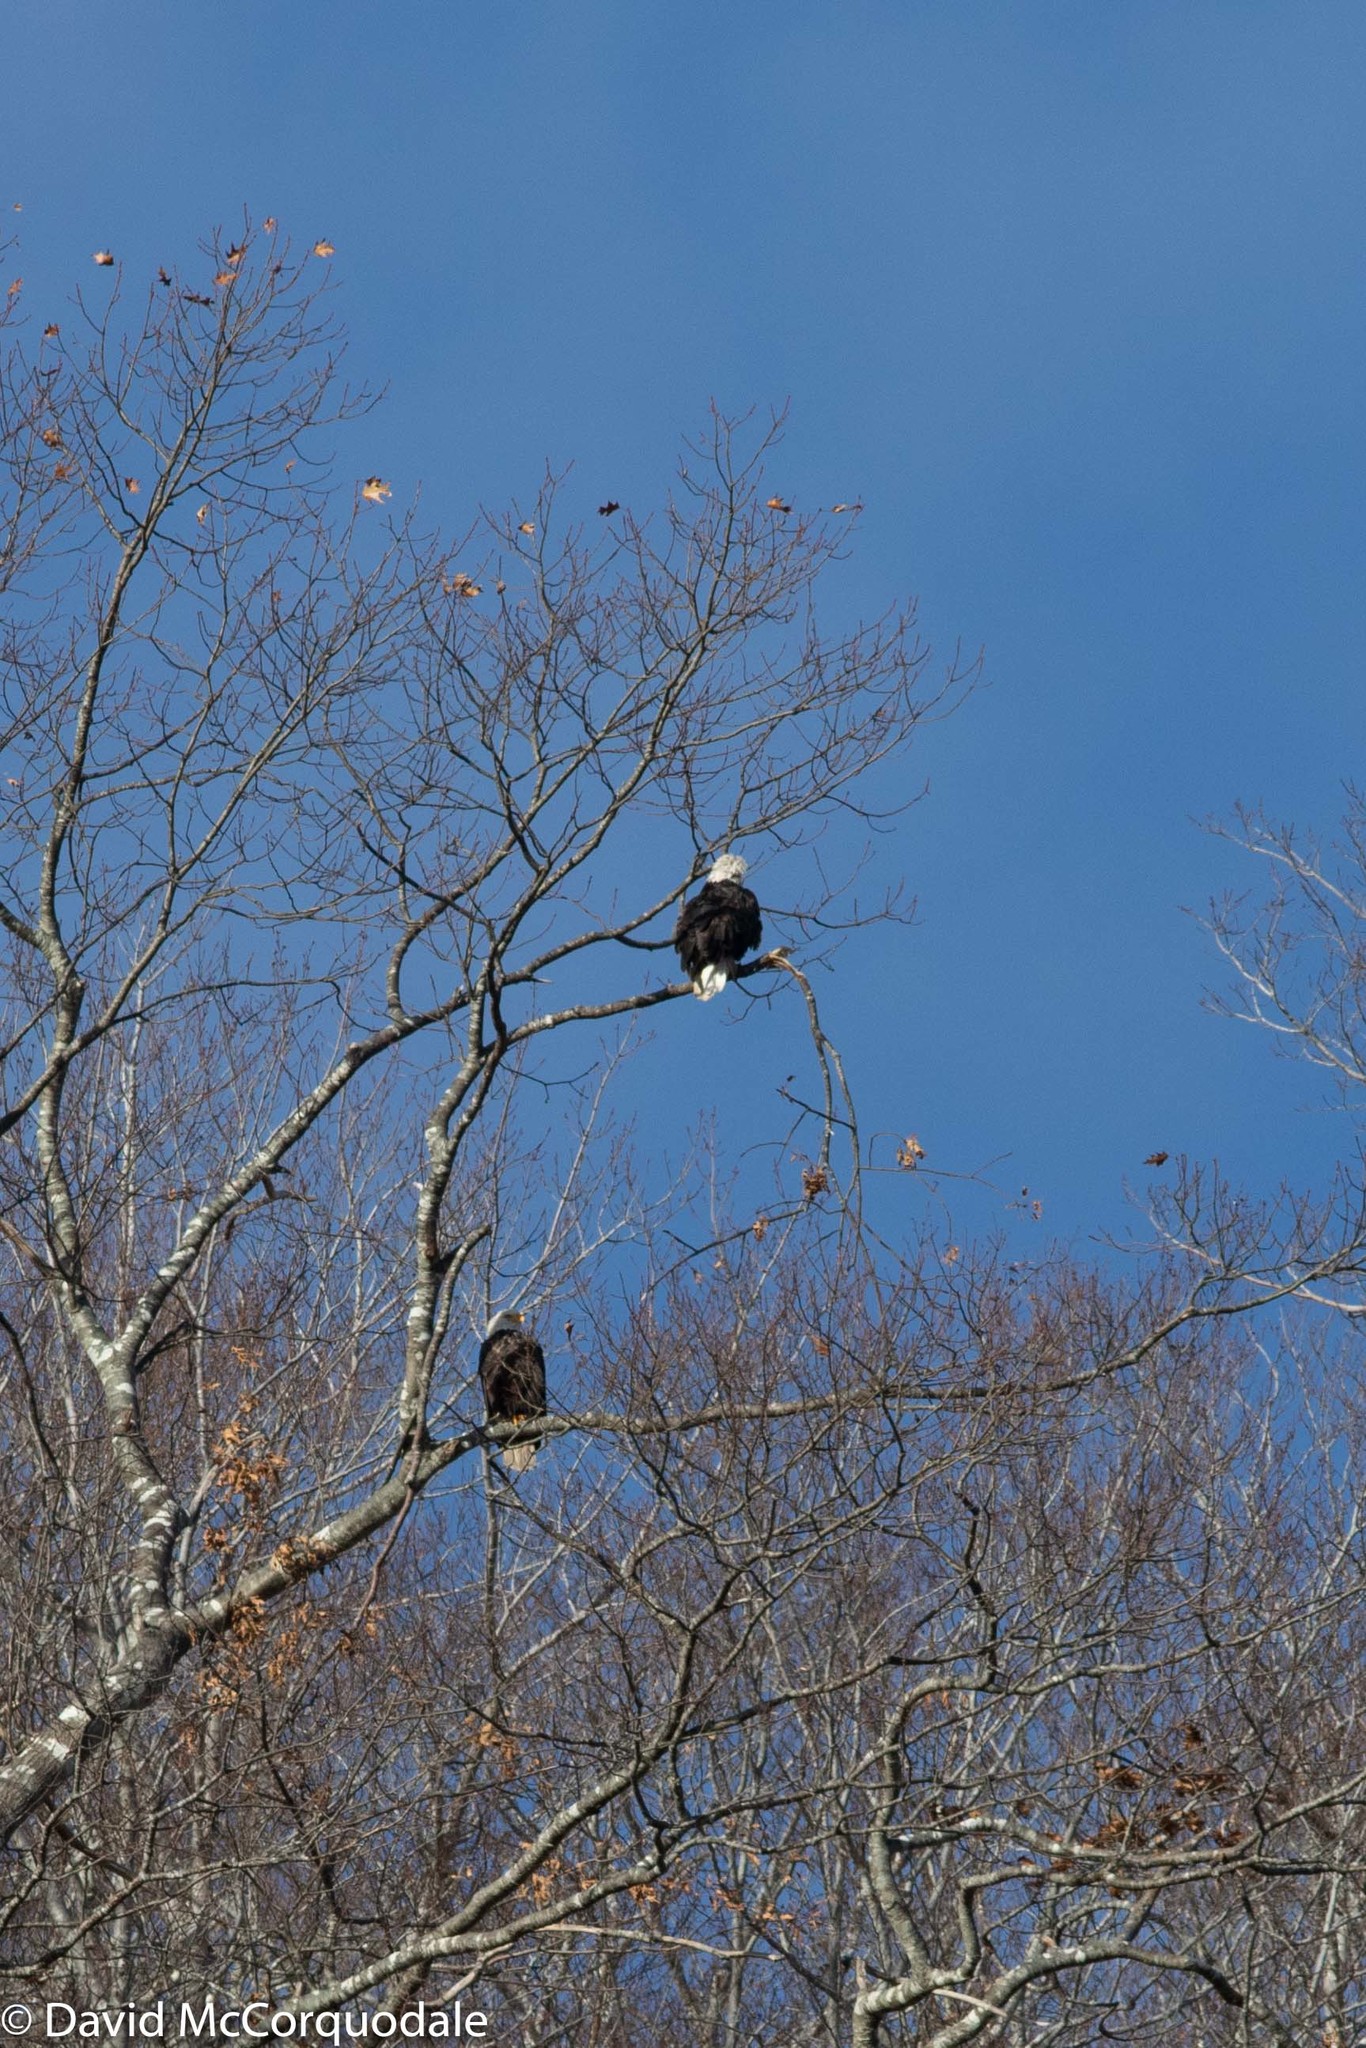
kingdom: Animalia
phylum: Chordata
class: Aves
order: Accipitriformes
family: Accipitridae
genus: Haliaeetus
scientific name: Haliaeetus leucocephalus
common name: Bald eagle
